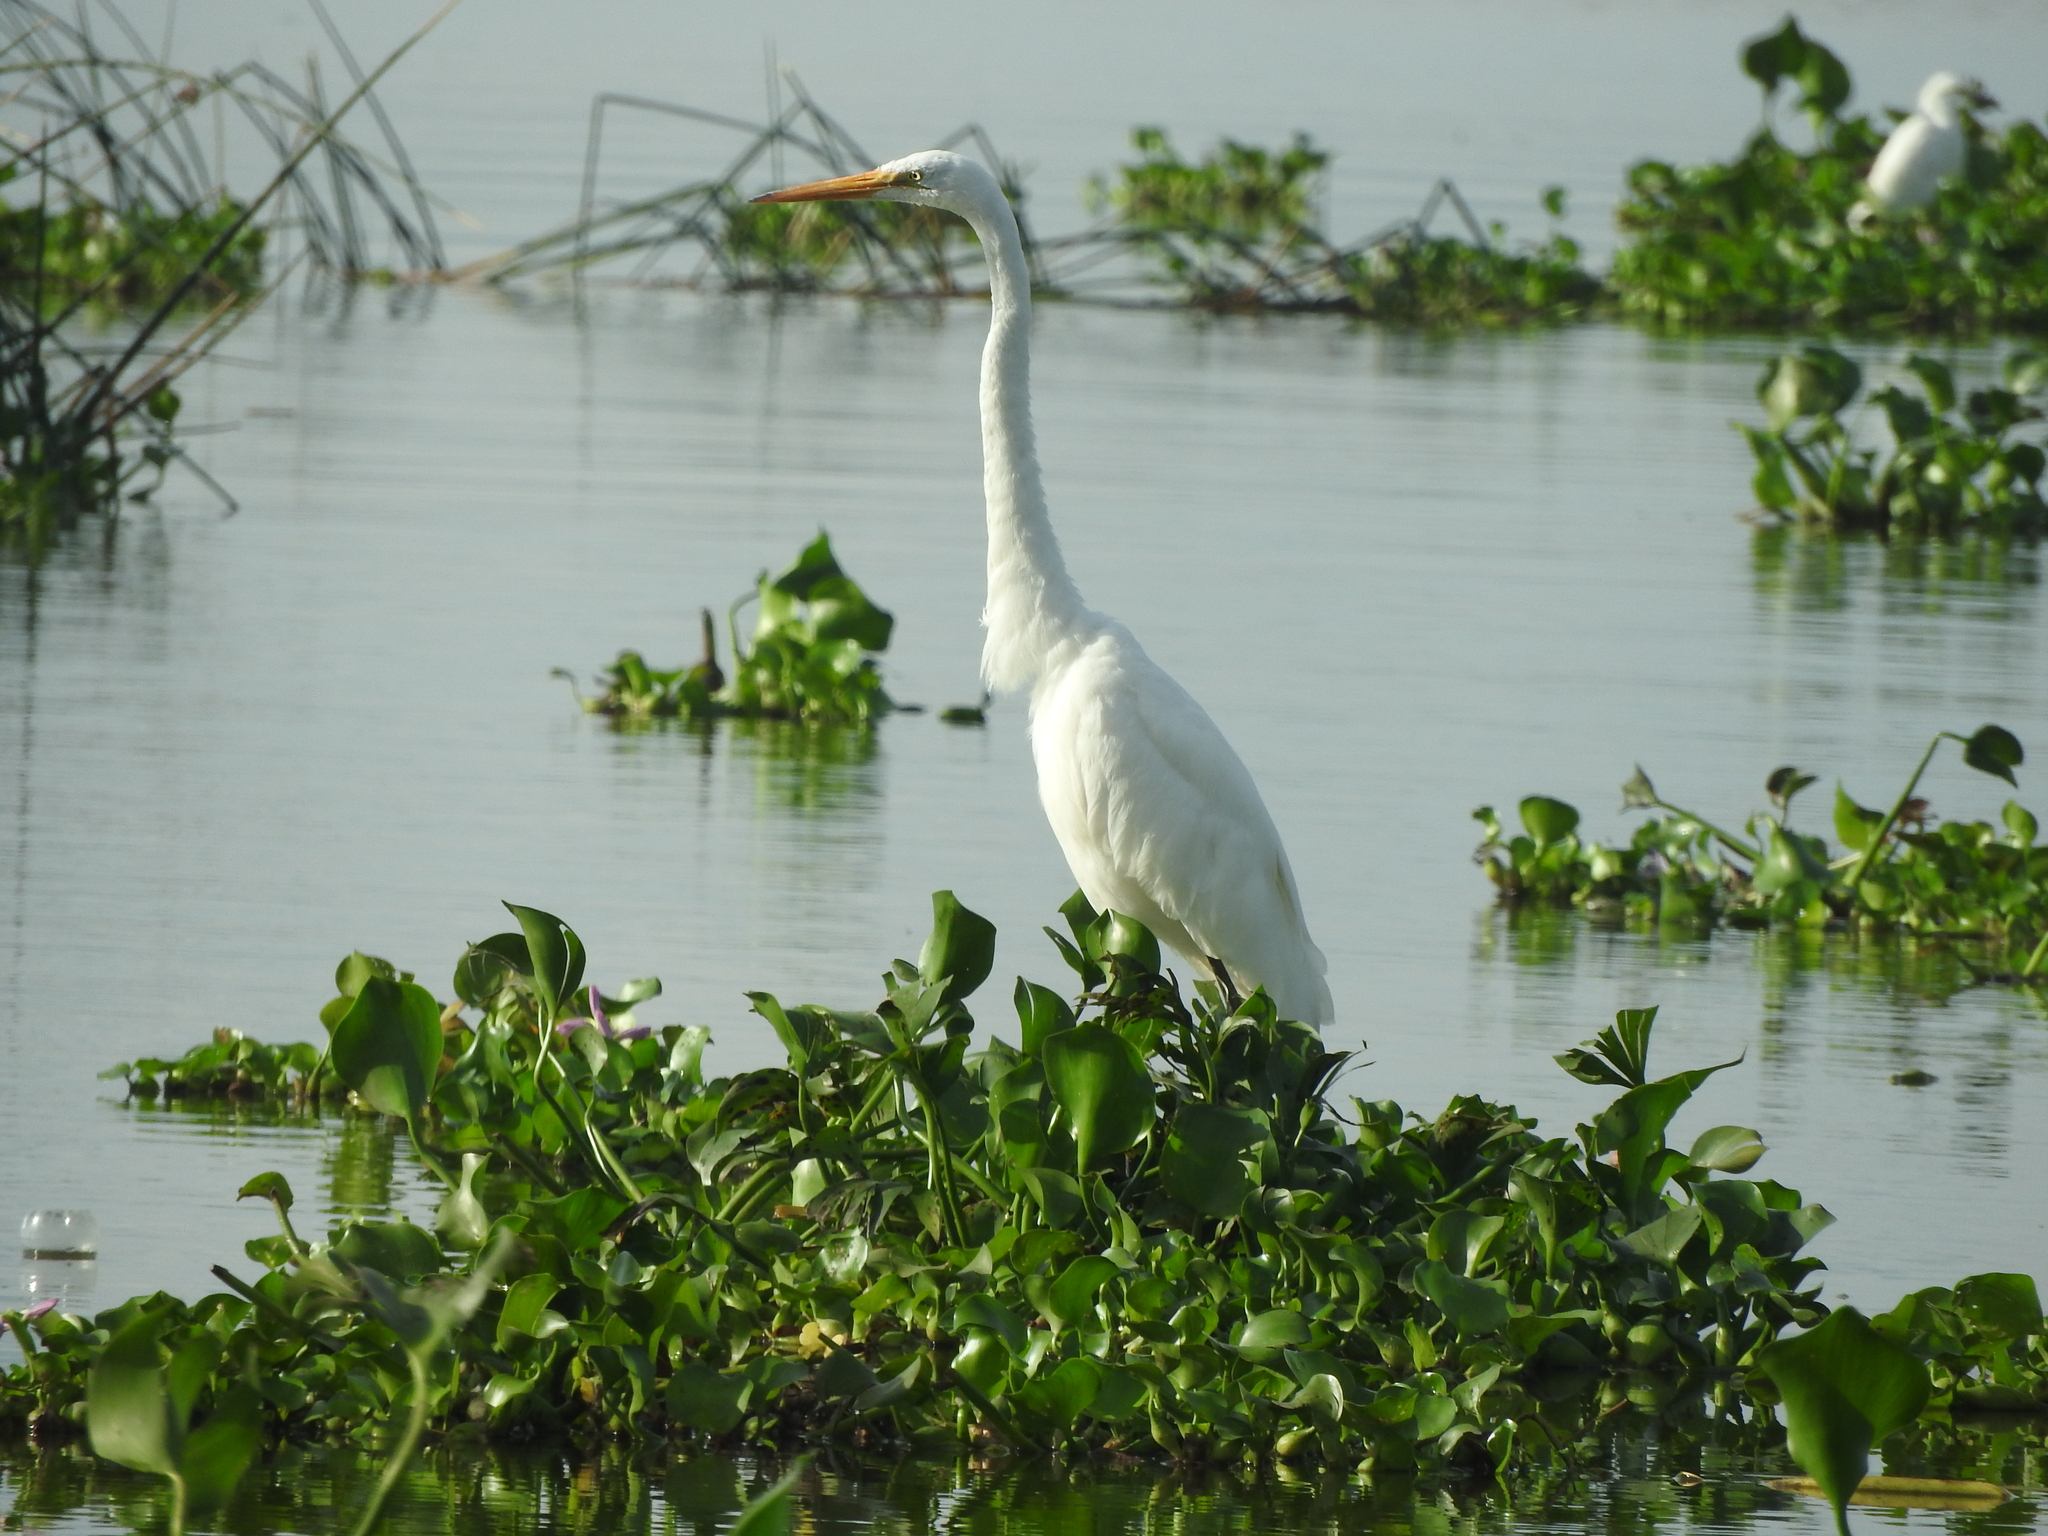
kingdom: Animalia
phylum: Chordata
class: Aves
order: Pelecaniformes
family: Ardeidae
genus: Ardea
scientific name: Ardea alba
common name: Great egret
